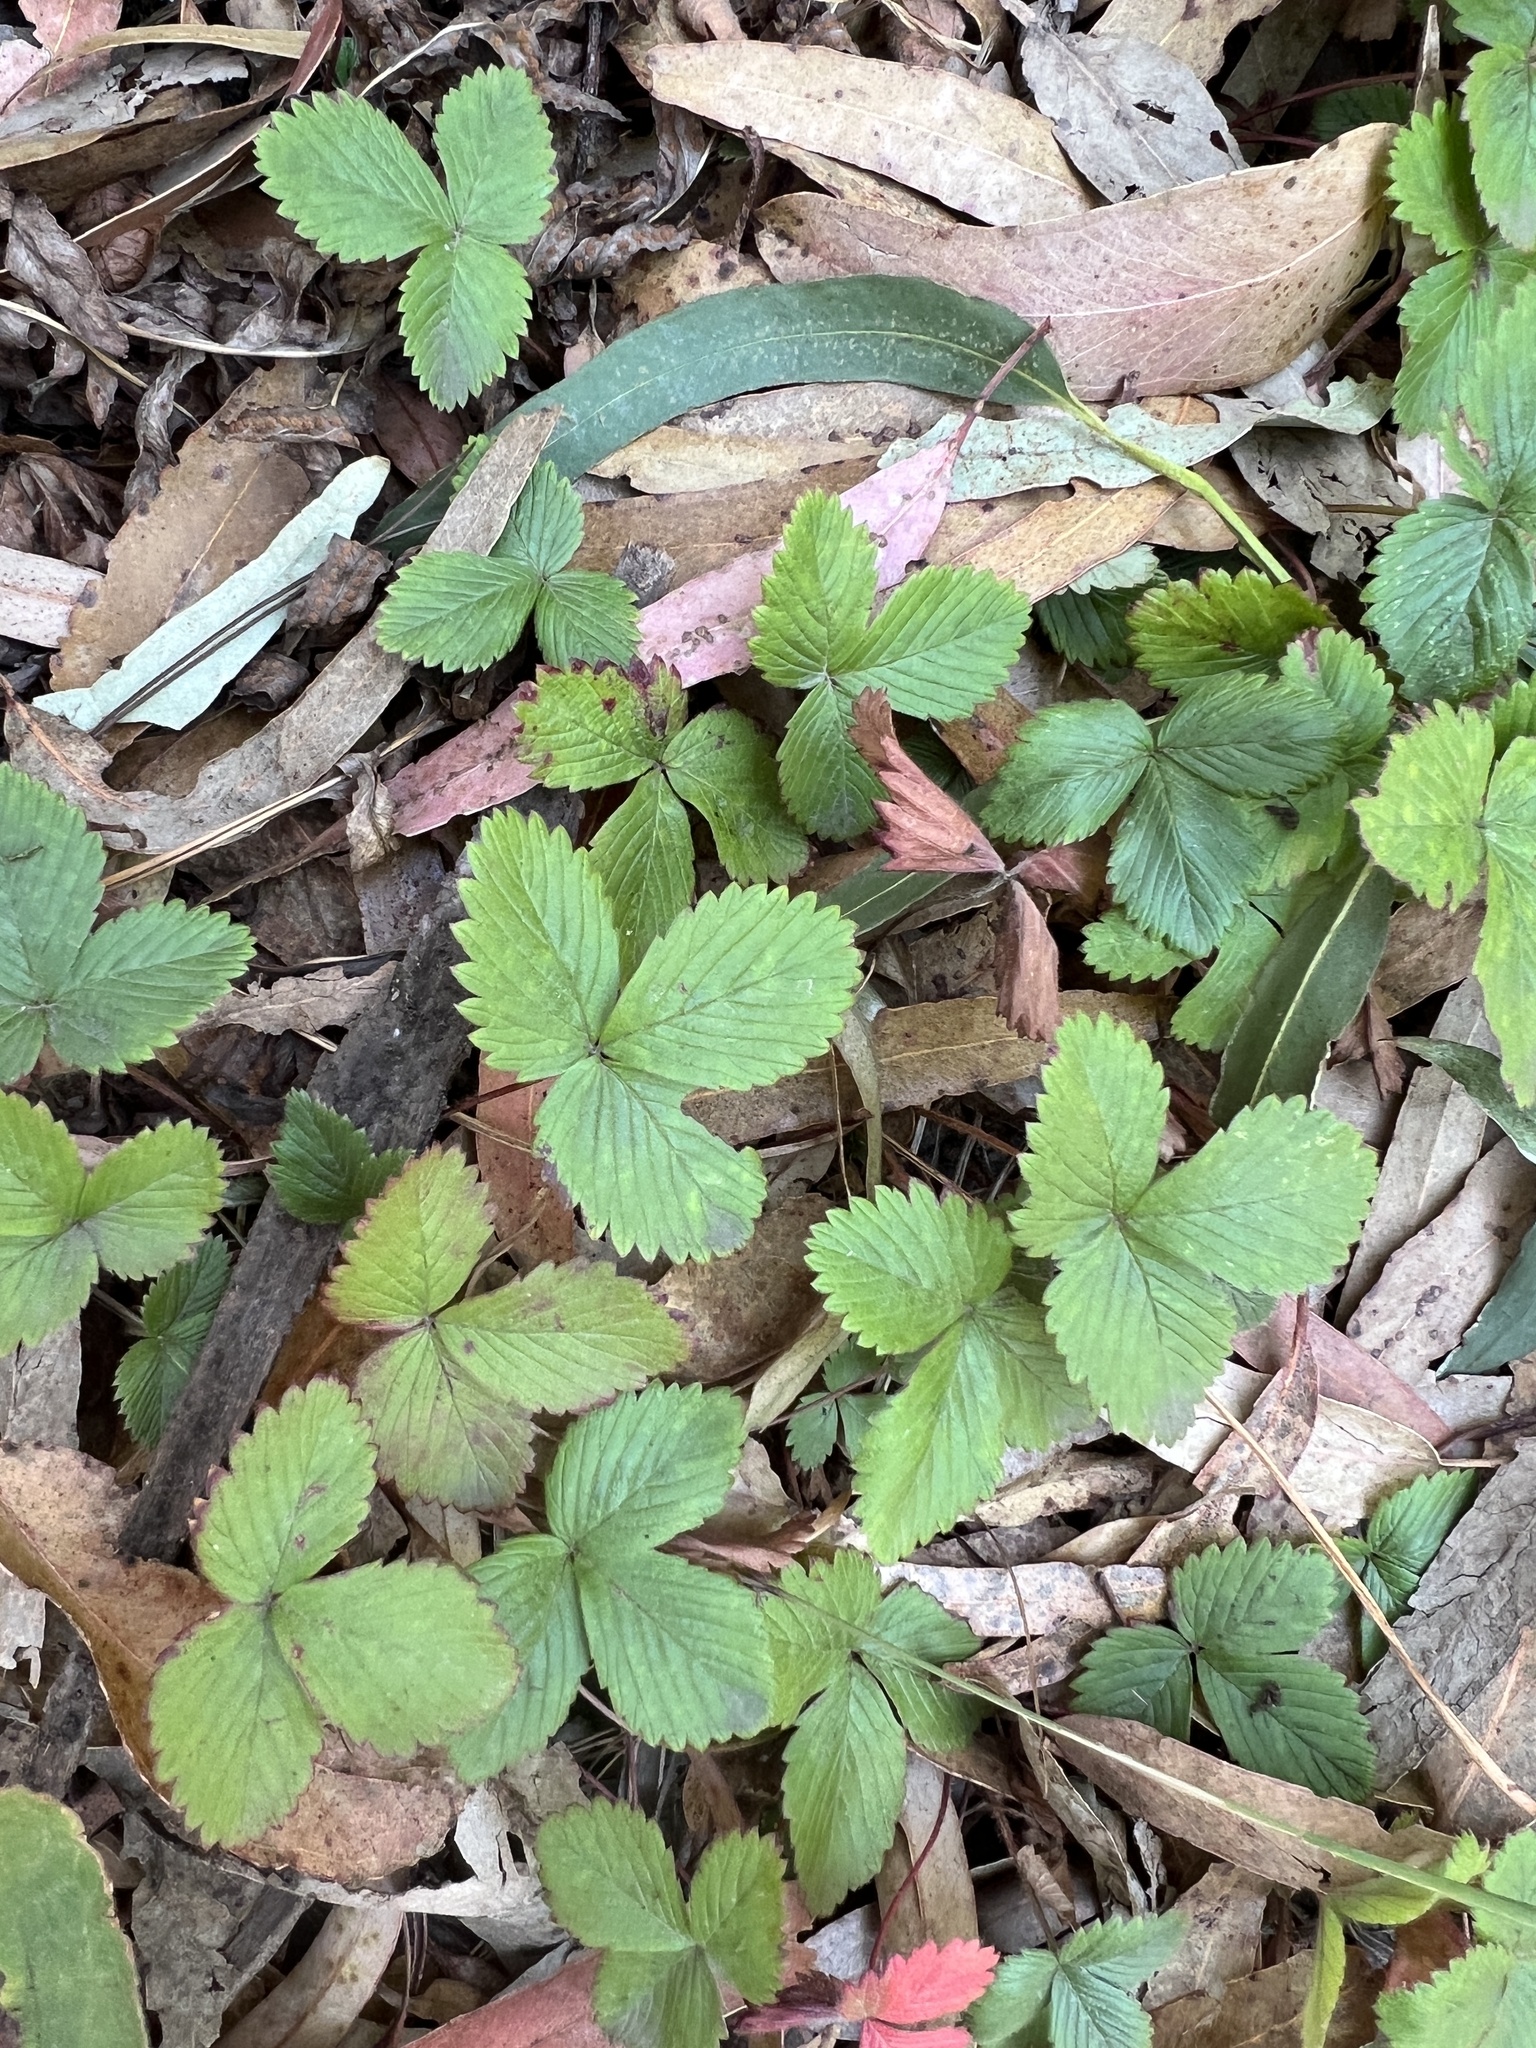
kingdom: Plantae
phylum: Tracheophyta
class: Magnoliopsida
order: Rosales
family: Rosaceae
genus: Fragaria
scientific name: Fragaria vesca
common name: Wild strawberry
